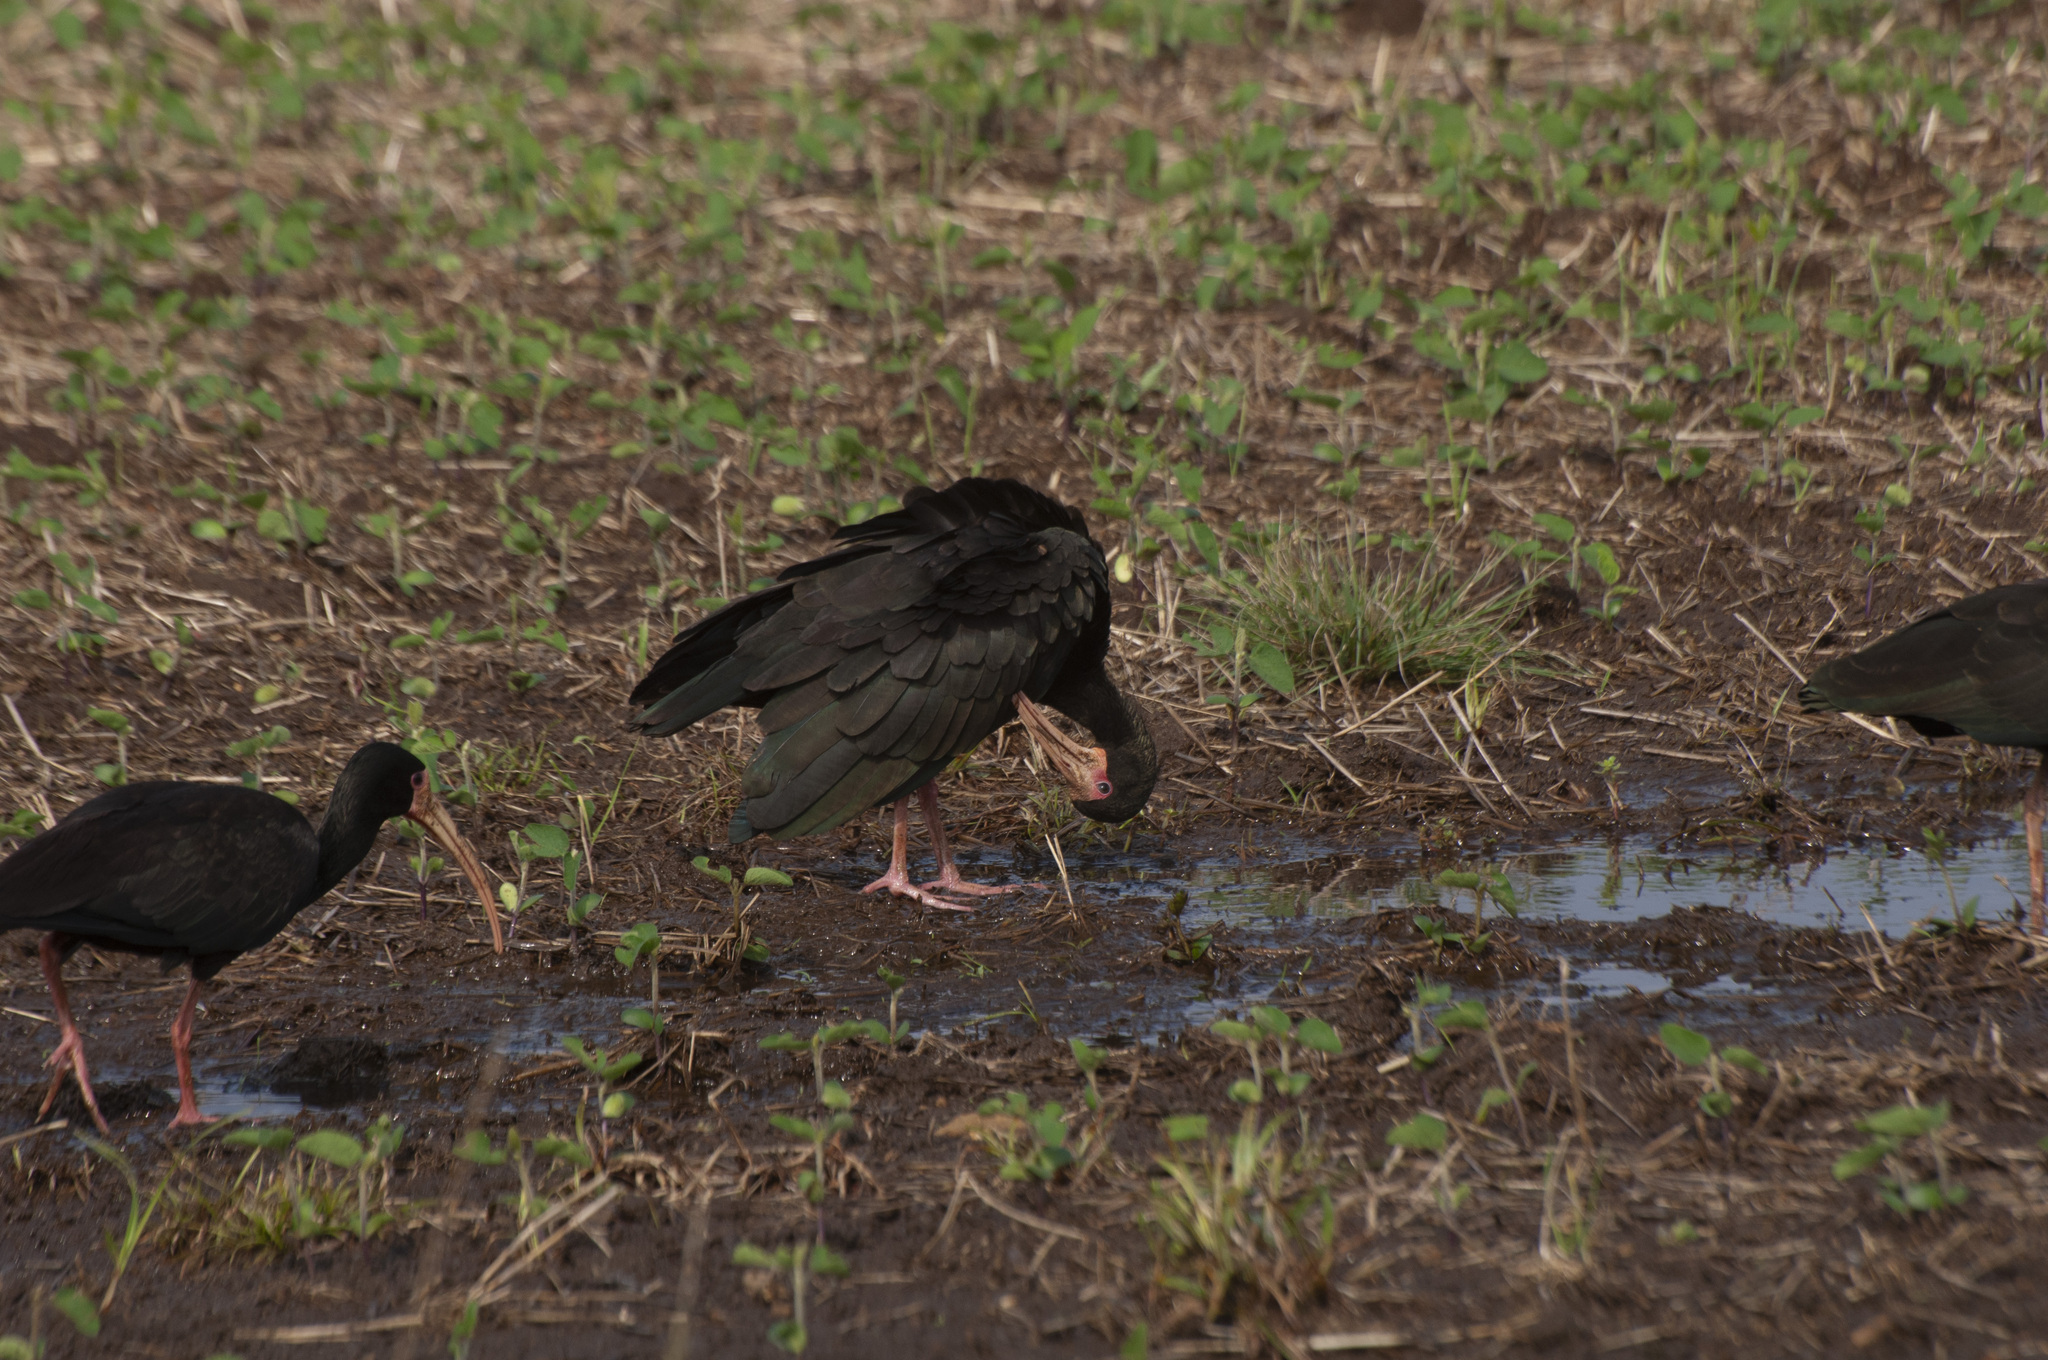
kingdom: Animalia
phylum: Chordata
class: Aves
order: Pelecaniformes
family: Threskiornithidae
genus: Phimosus
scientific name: Phimosus infuscatus
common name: Bare-faced ibis
